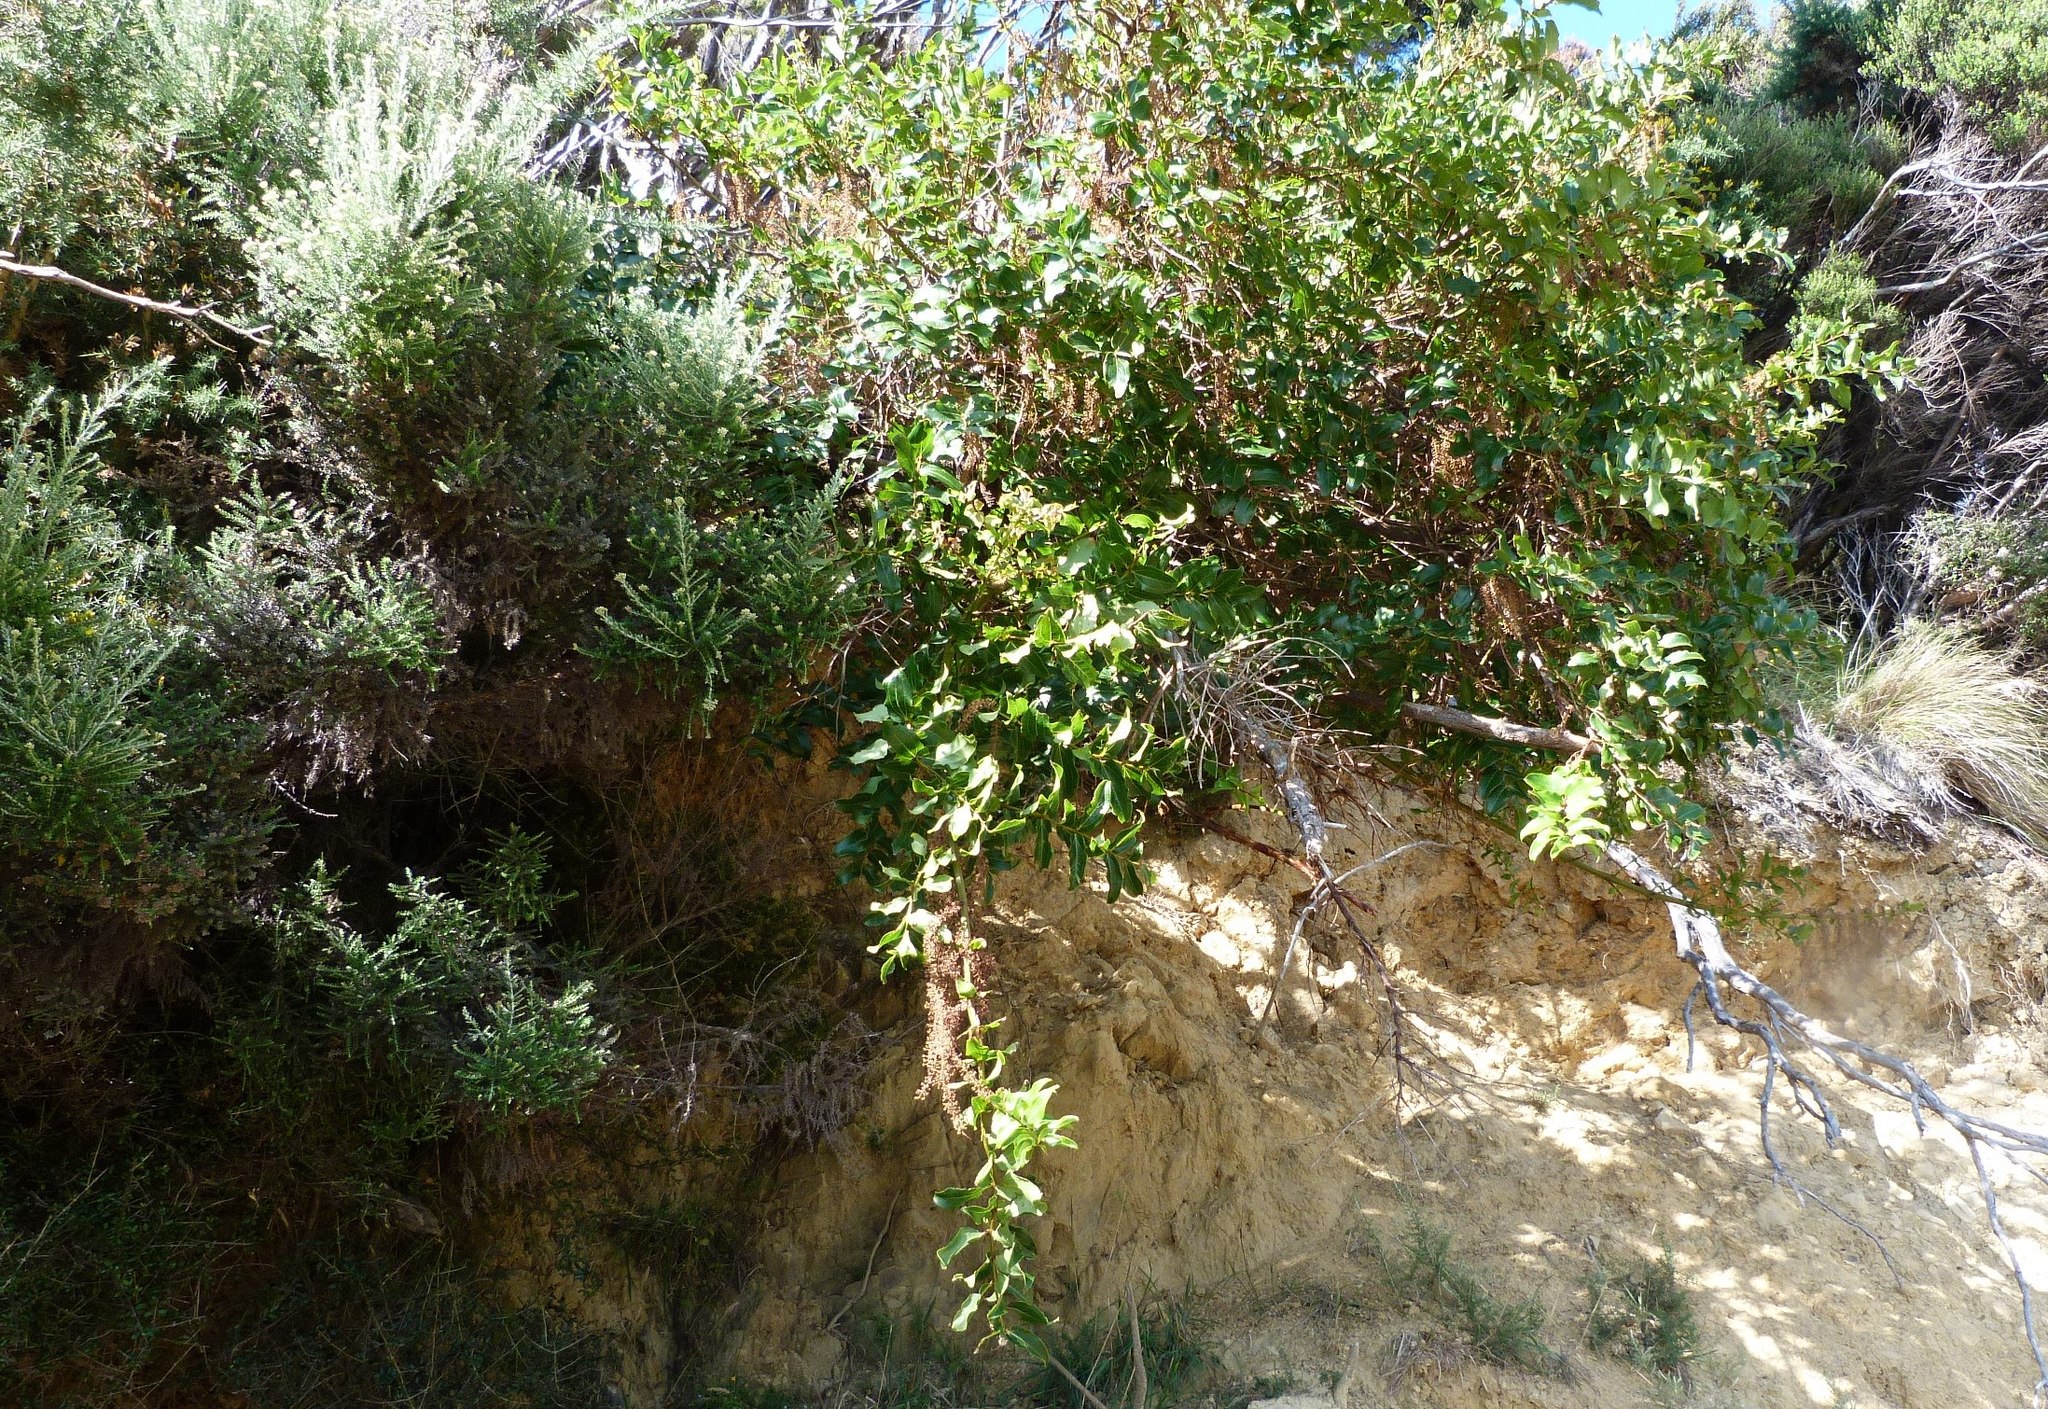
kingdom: Plantae
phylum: Tracheophyta
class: Magnoliopsida
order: Cucurbitales
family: Coriariaceae
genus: Coriaria
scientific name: Coriaria arborea
